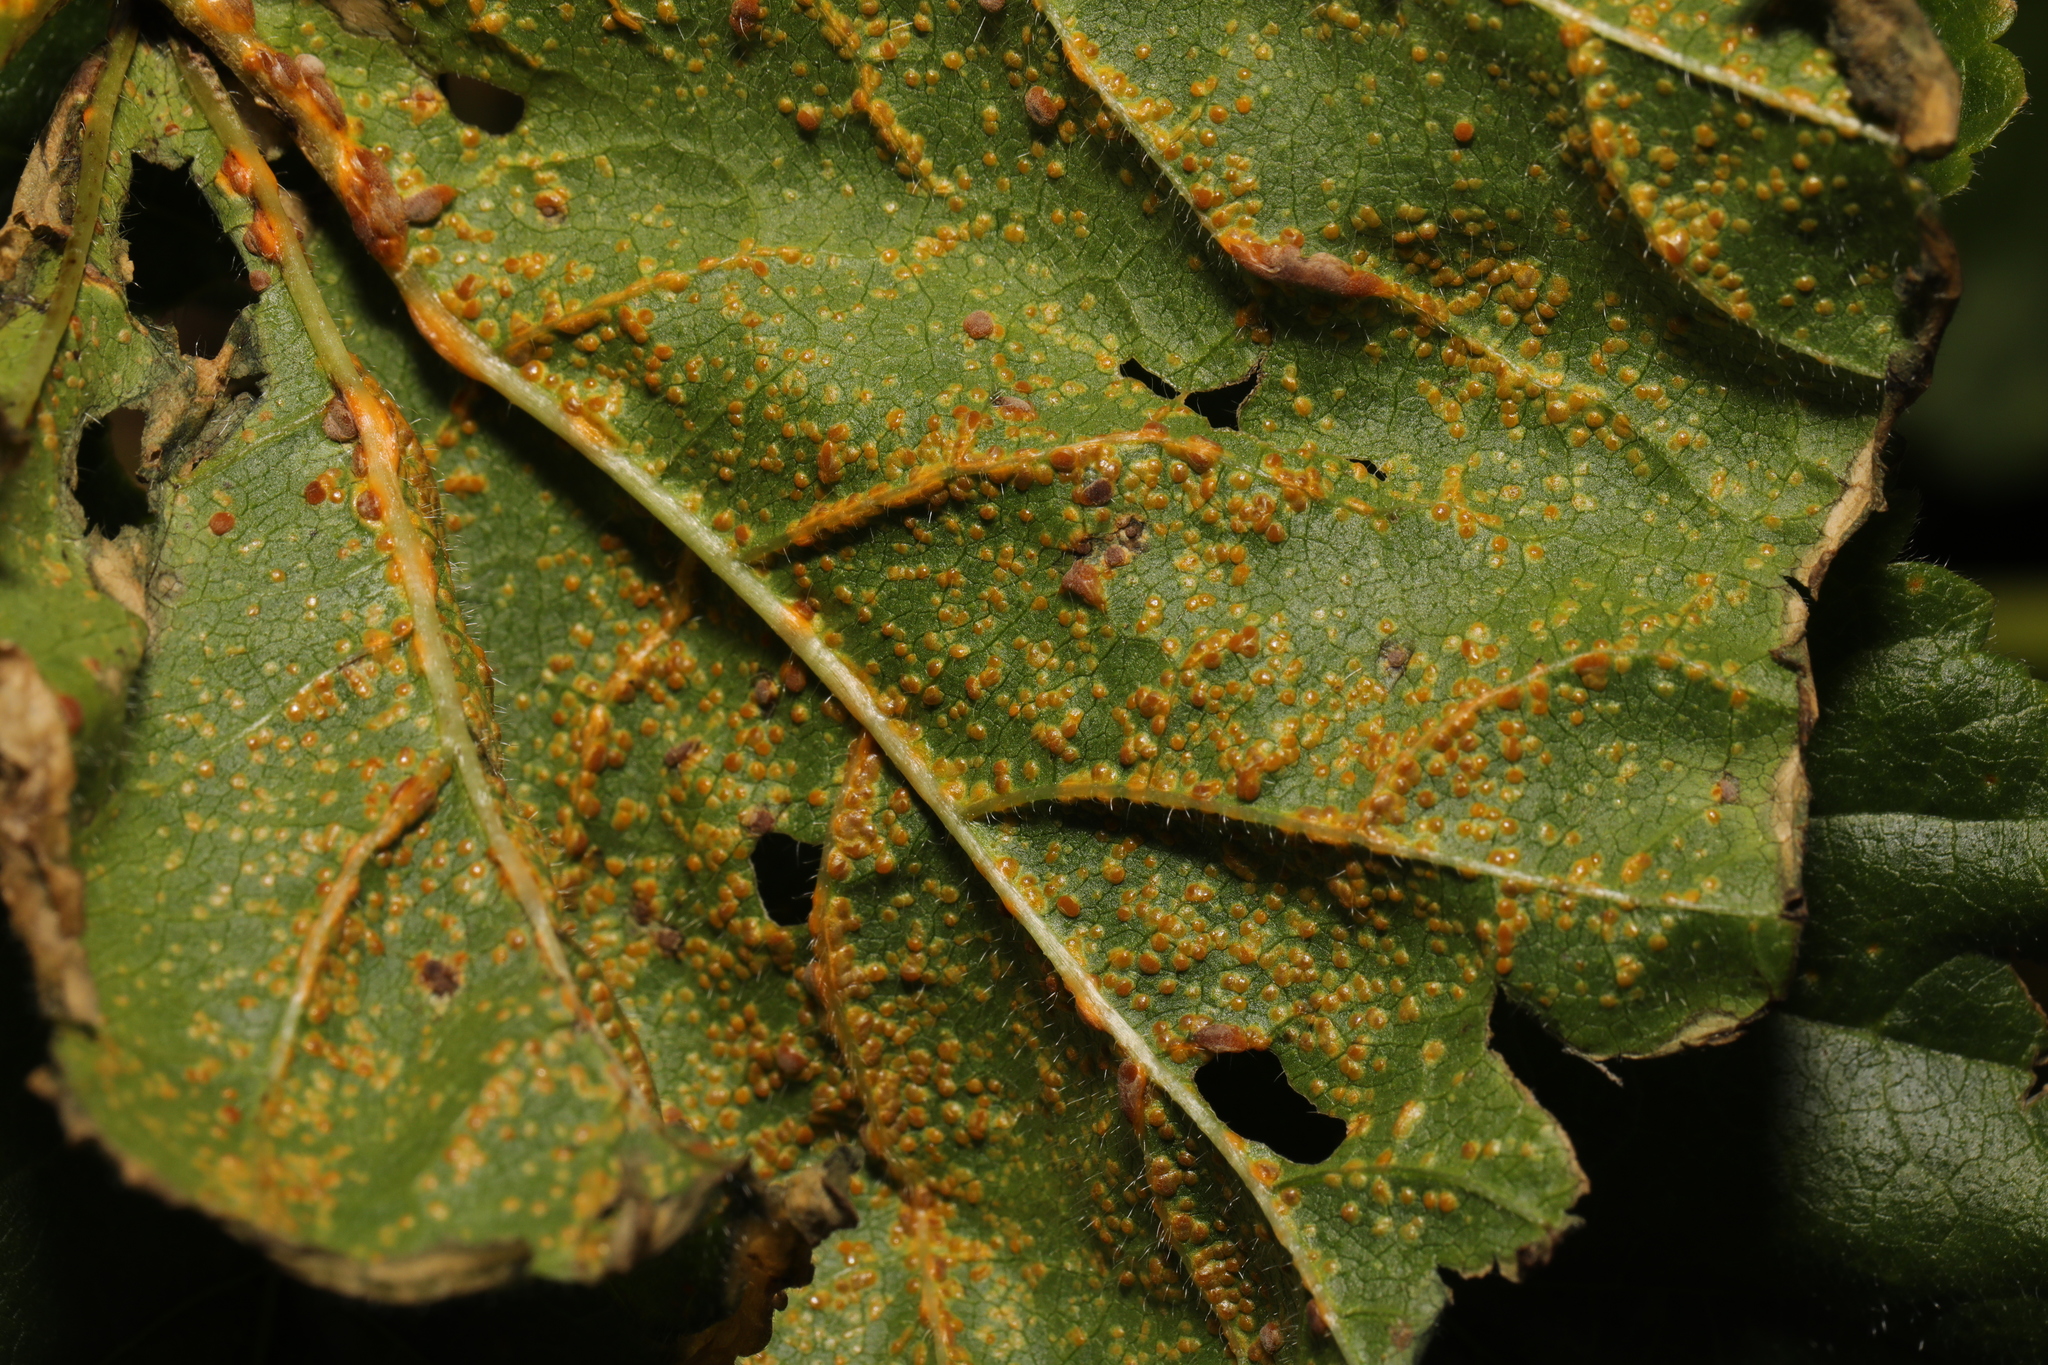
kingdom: Fungi
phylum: Basidiomycota
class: Pucciniomycetes
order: Pucciniales
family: Pucciniaceae
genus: Puccinia
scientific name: Puccinia malvacearum
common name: Hollyhock rust
